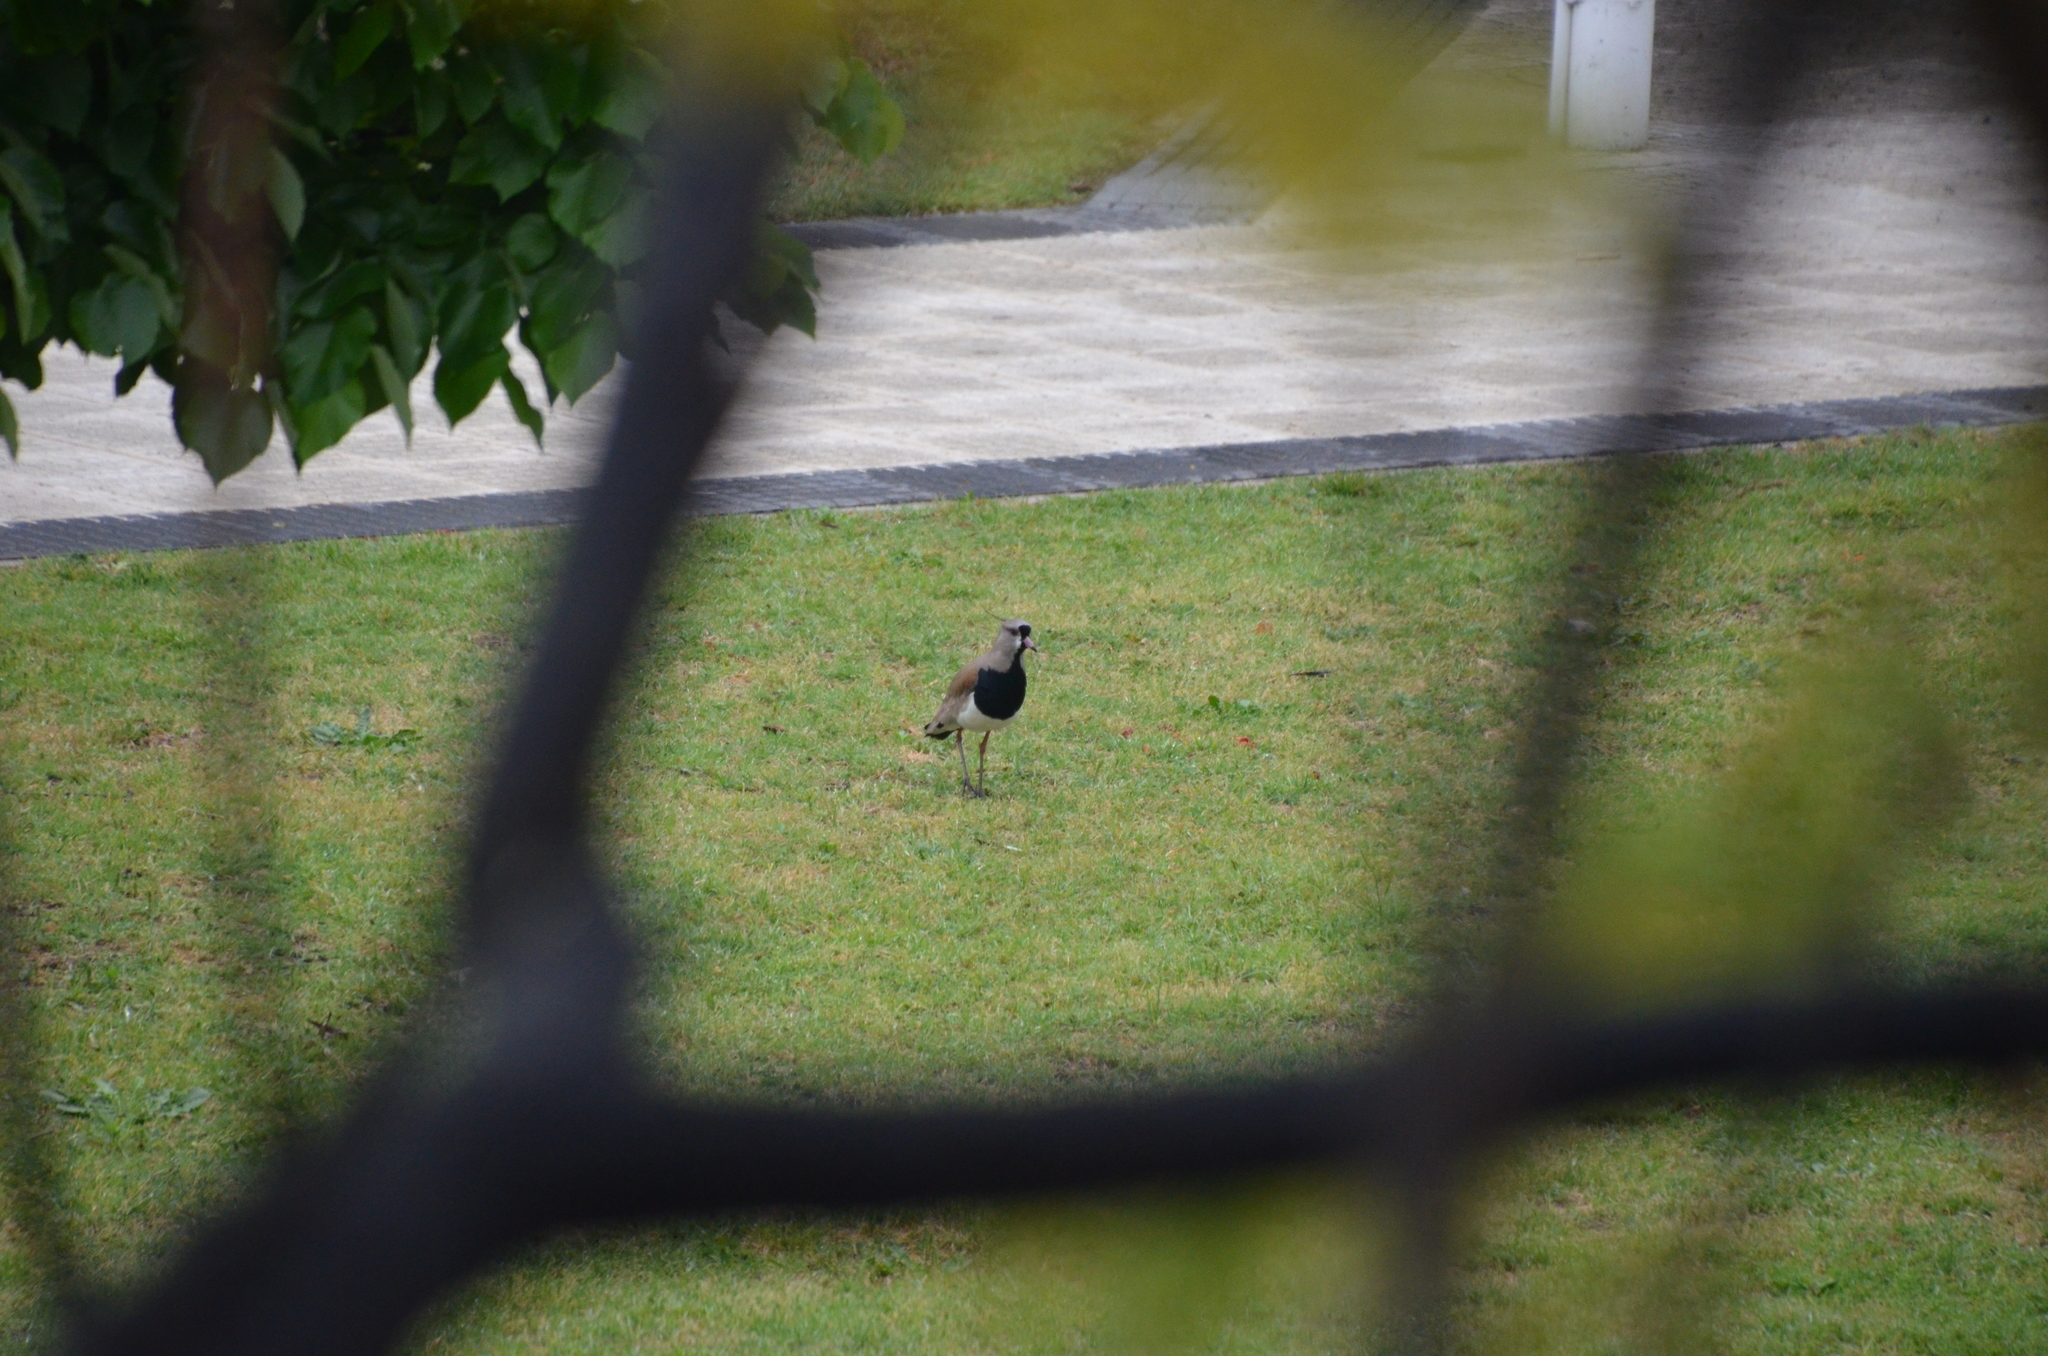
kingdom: Animalia
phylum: Chordata
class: Aves
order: Charadriiformes
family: Charadriidae
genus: Vanellus
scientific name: Vanellus chilensis
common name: Southern lapwing
